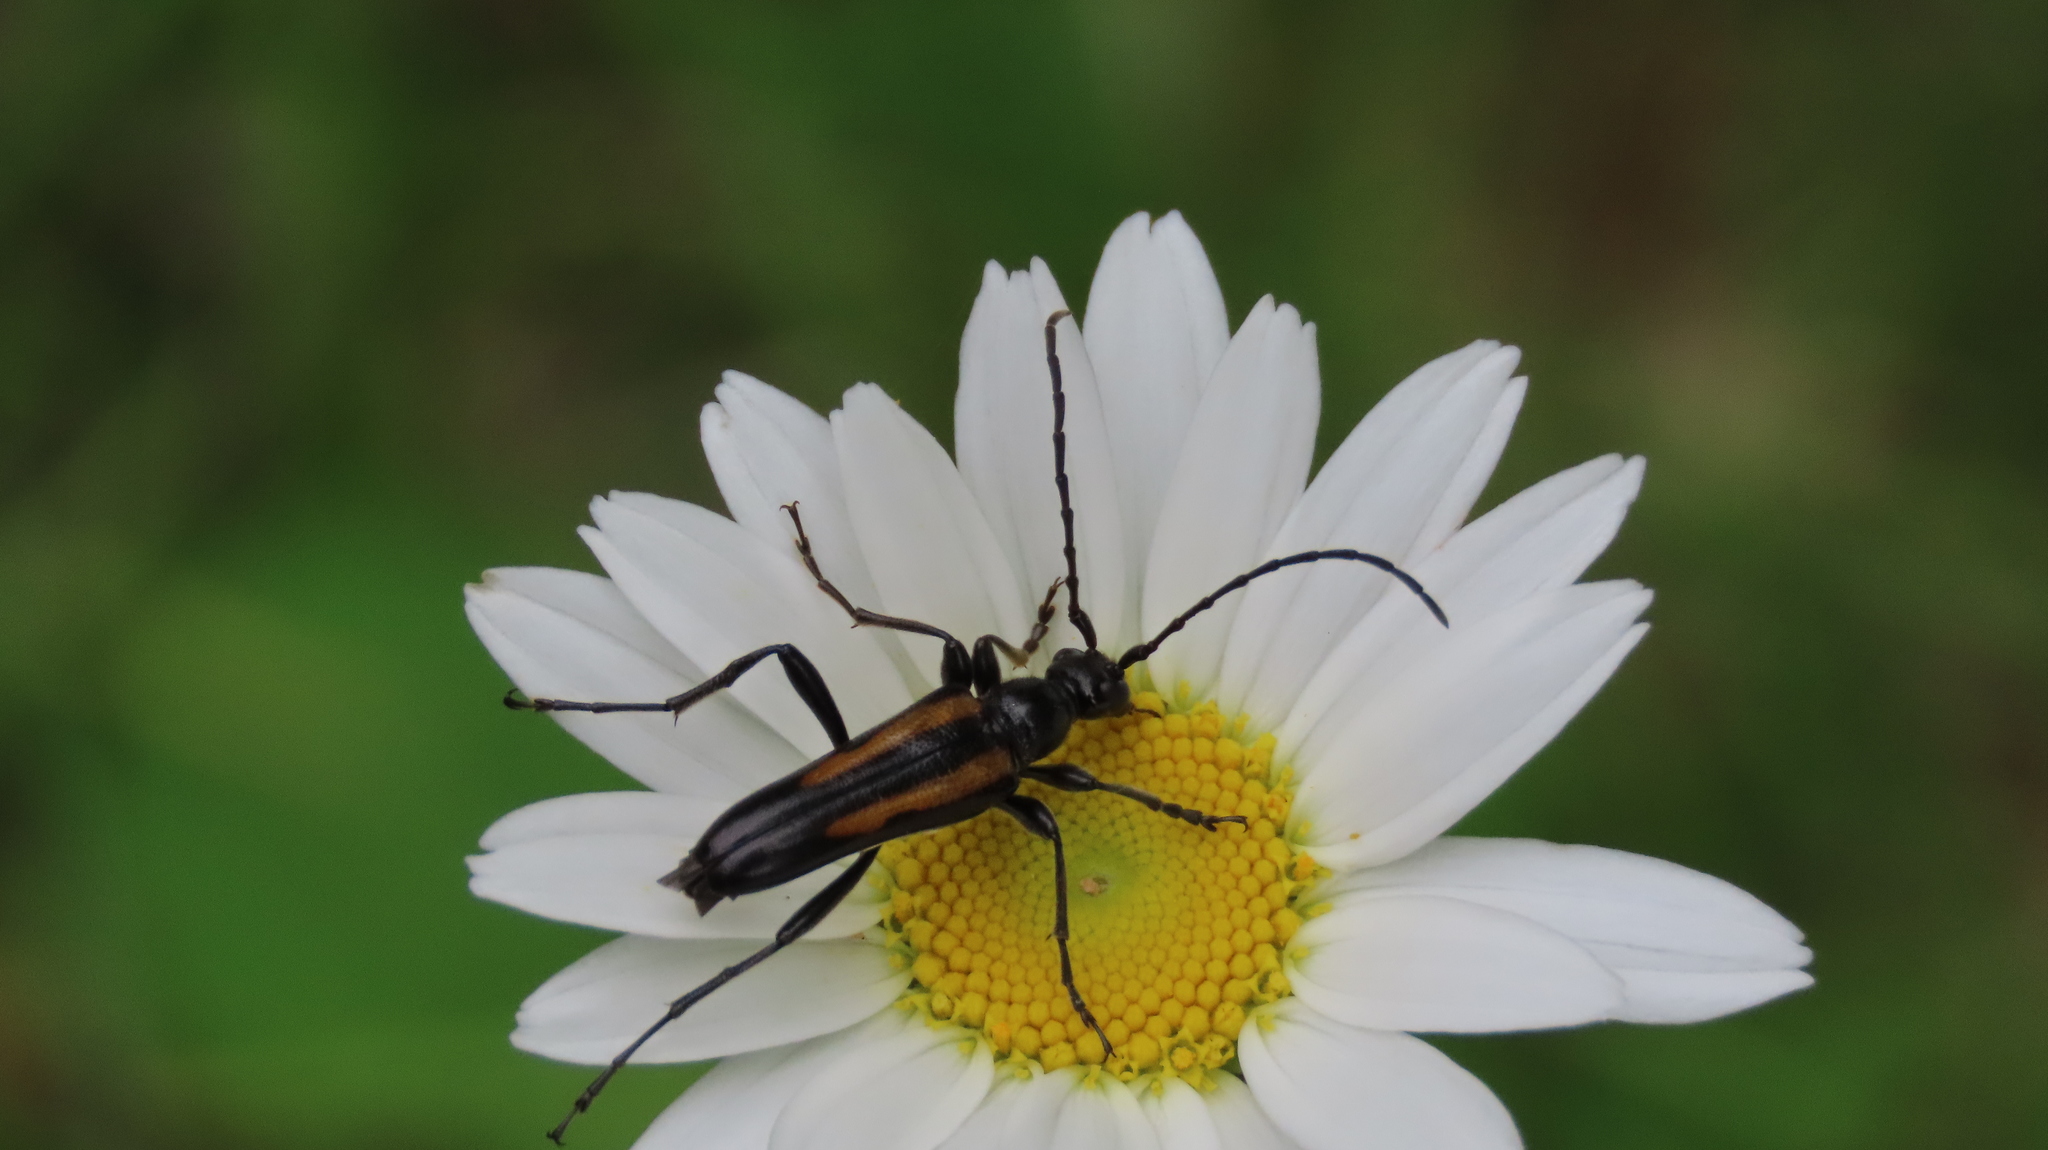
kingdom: Animalia
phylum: Arthropoda
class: Insecta
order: Coleoptera
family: Cerambycidae
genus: Strangalepta
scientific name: Strangalepta abbreviata
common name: Strangalepta flower longhorn beetle
